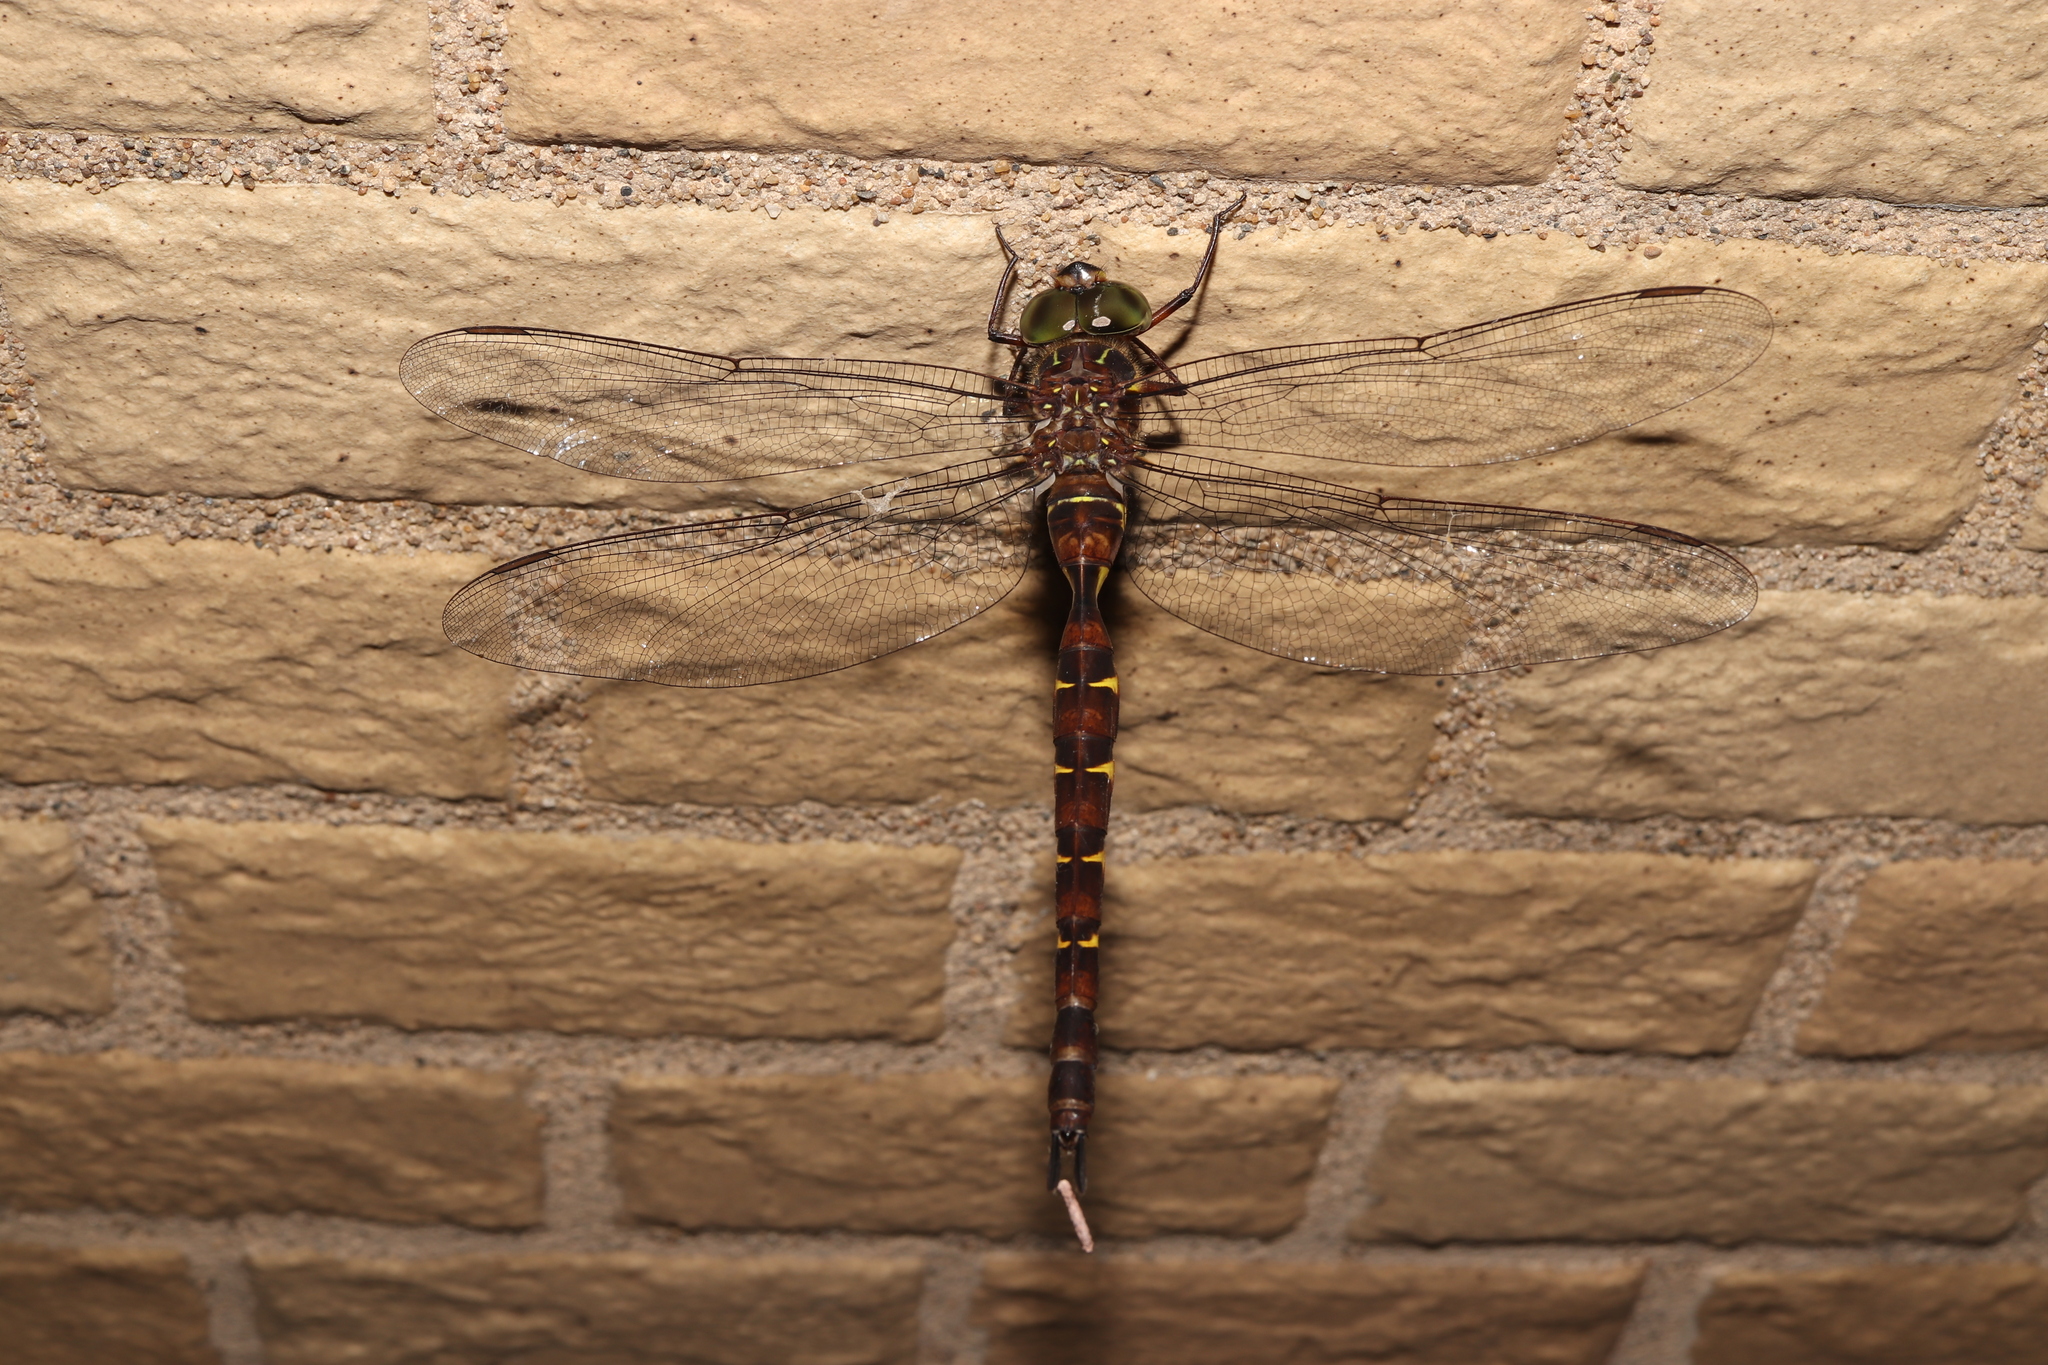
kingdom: Animalia
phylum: Arthropoda
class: Insecta
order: Odonata
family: Aeshnidae
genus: Boyeria
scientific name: Boyeria maclachlani
